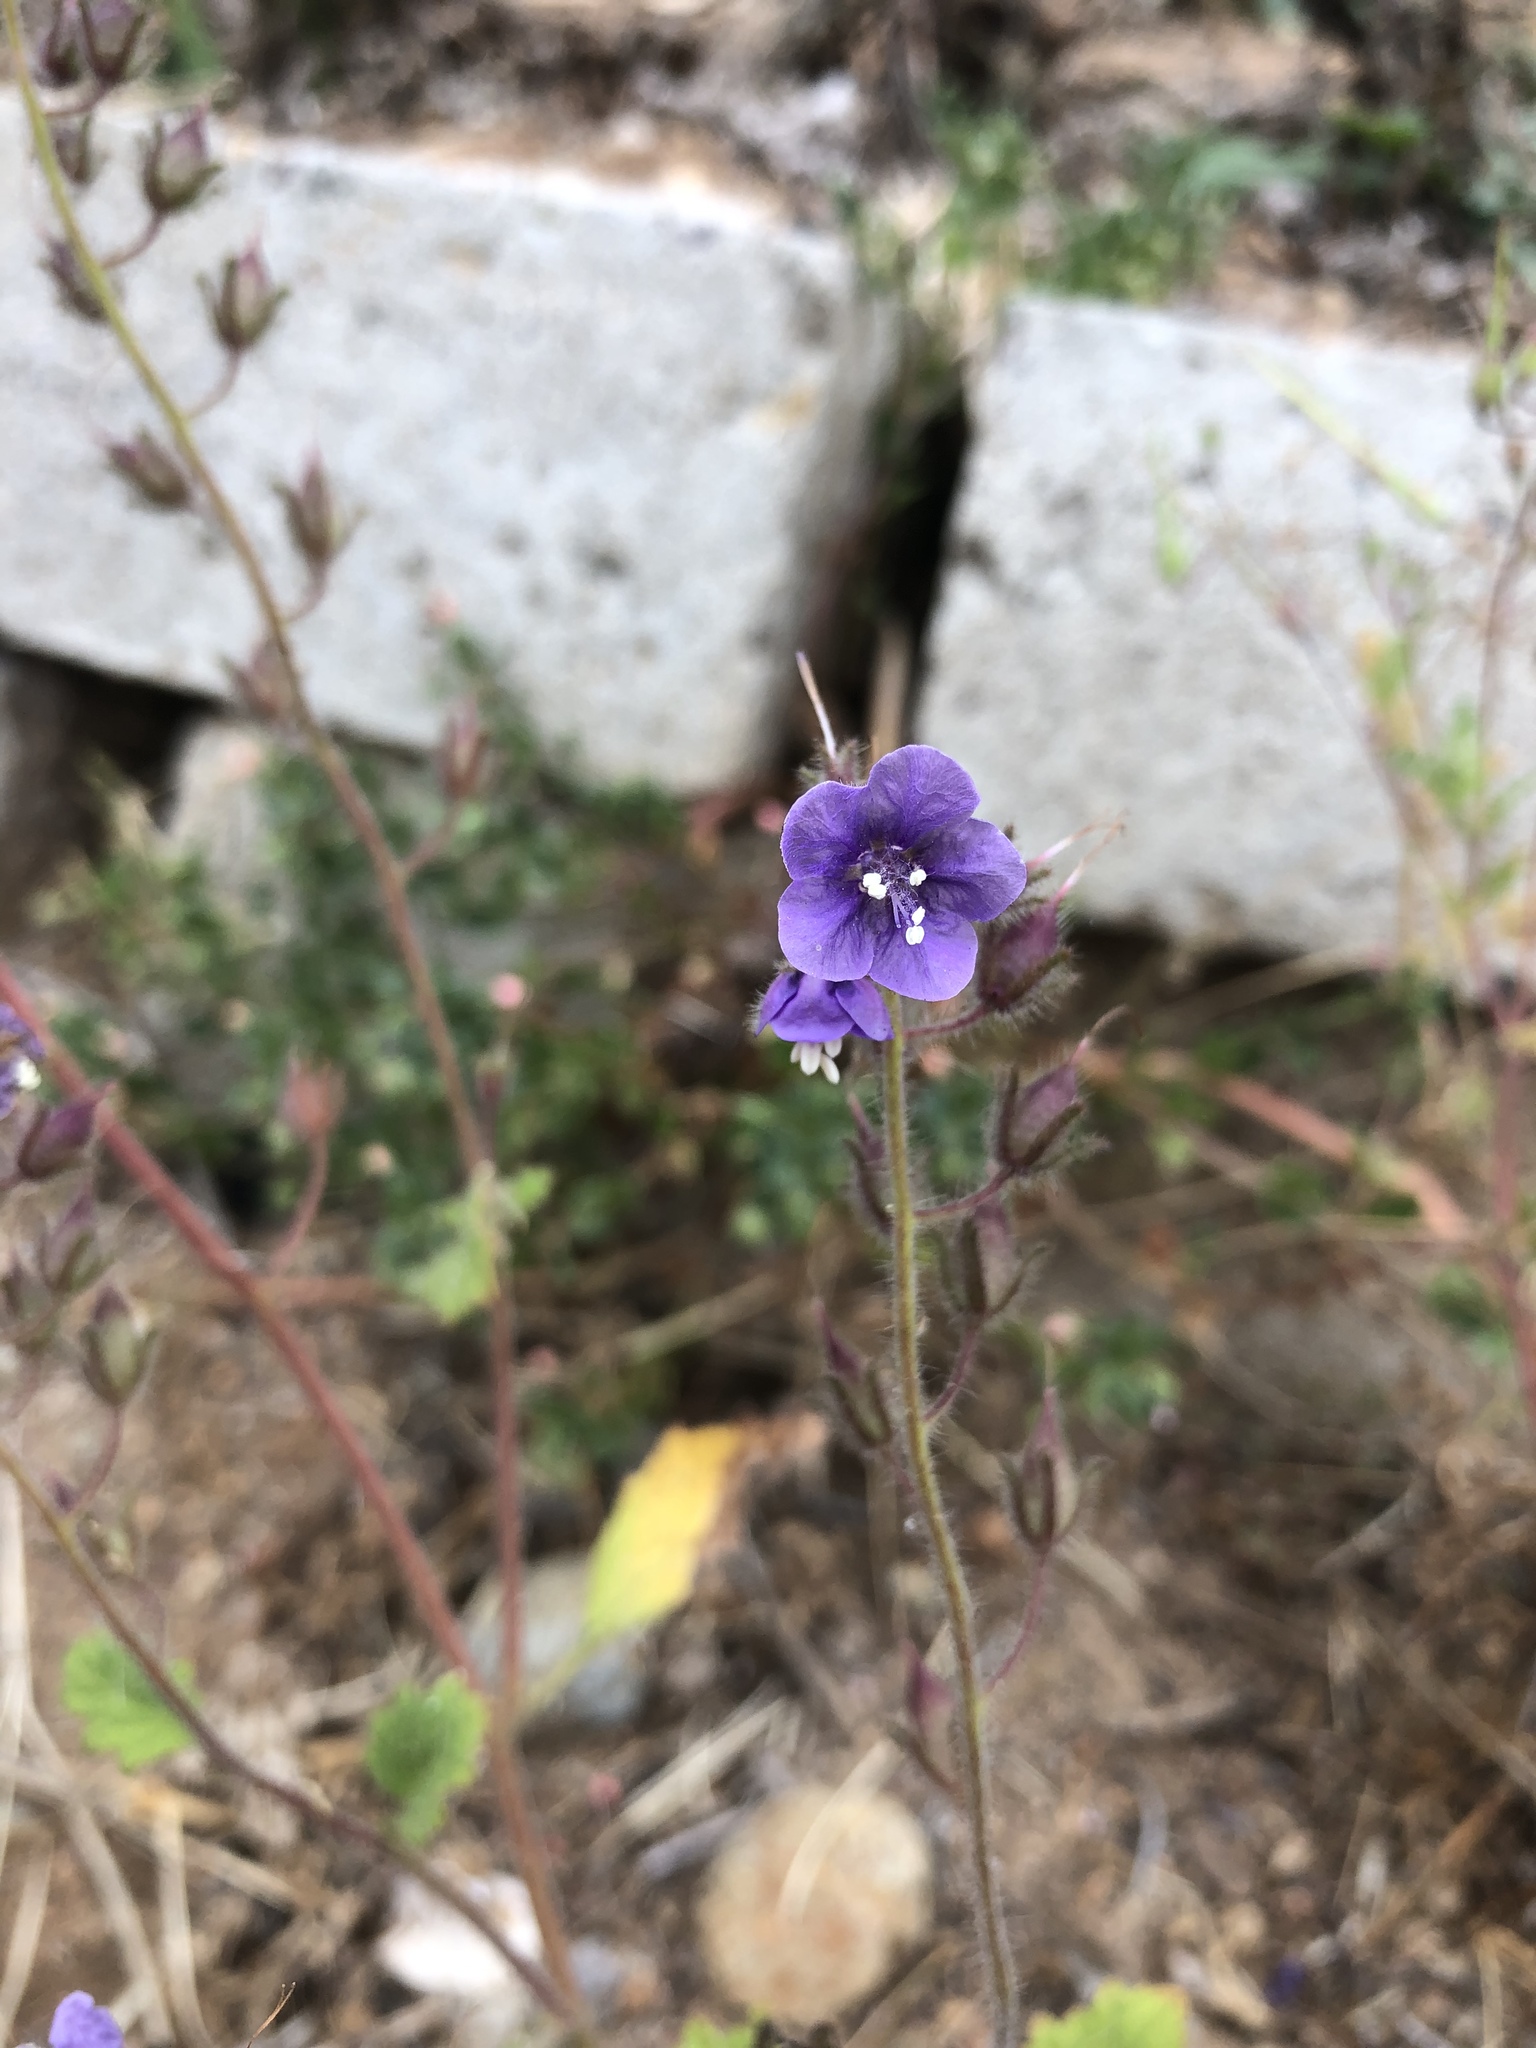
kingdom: Plantae
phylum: Tracheophyta
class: Magnoliopsida
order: Boraginales
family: Hydrophyllaceae
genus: Phacelia
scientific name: Phacelia parryi
